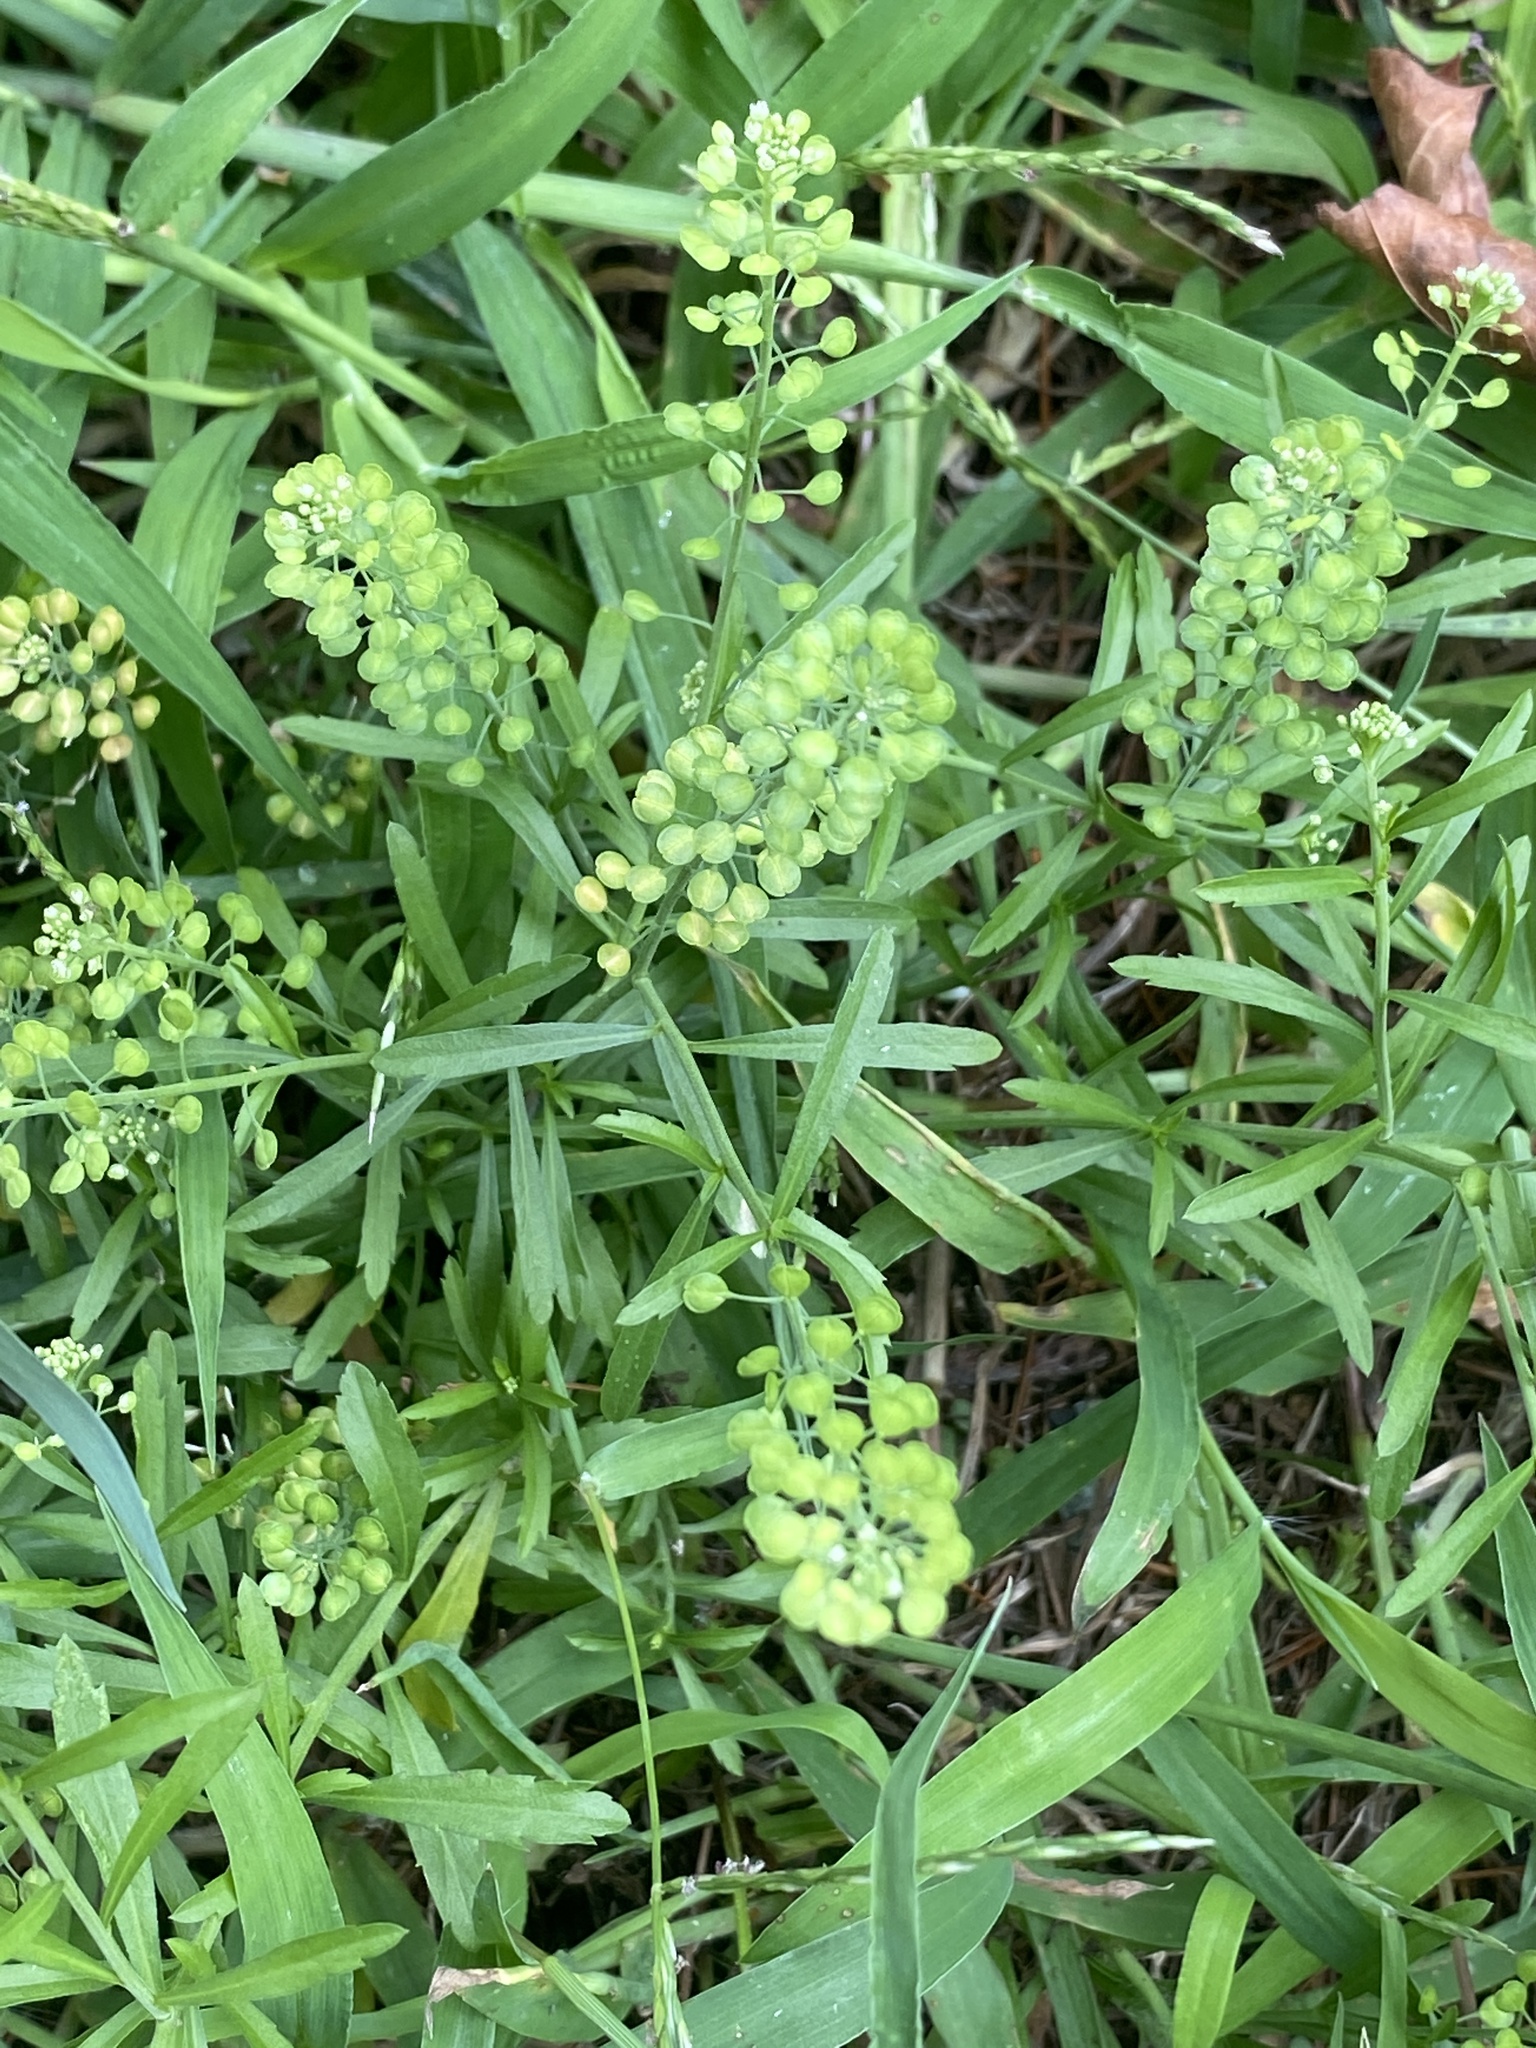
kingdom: Plantae
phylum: Tracheophyta
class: Magnoliopsida
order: Brassicales
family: Brassicaceae
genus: Lepidium
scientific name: Lepidium virginicum
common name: Least pepperwort
